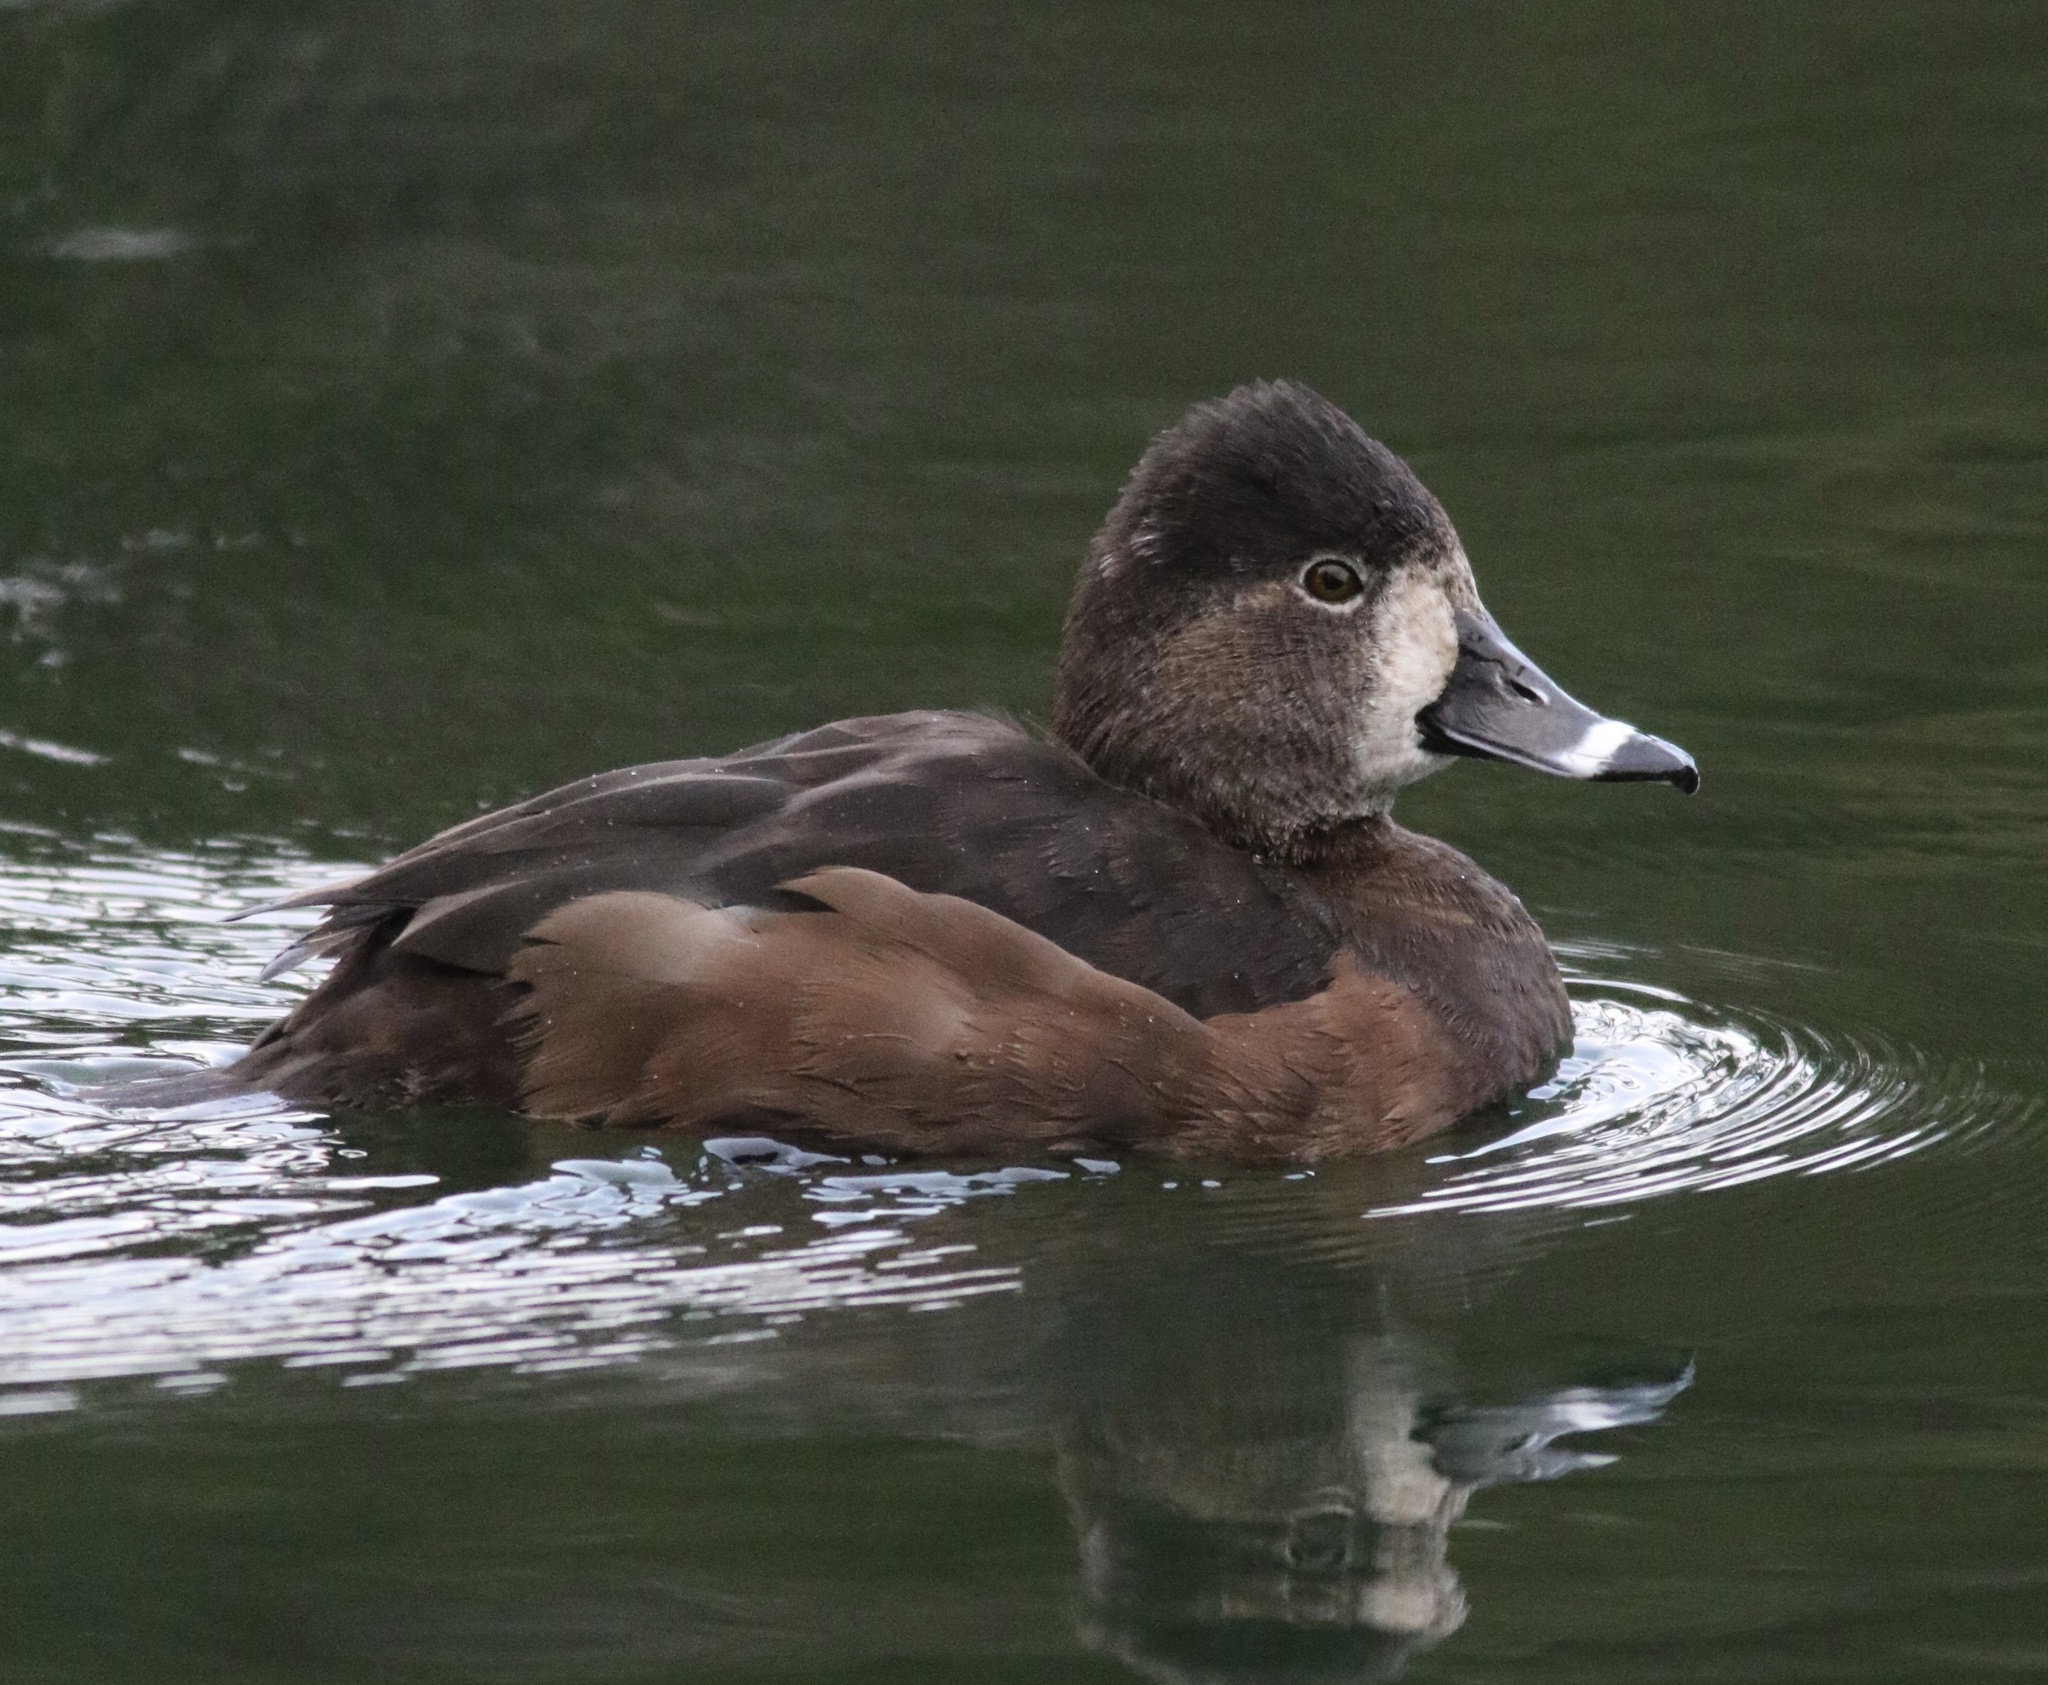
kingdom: Animalia
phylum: Chordata
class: Aves
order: Anseriformes
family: Anatidae
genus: Aythya
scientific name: Aythya collaris
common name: Ring-necked duck
